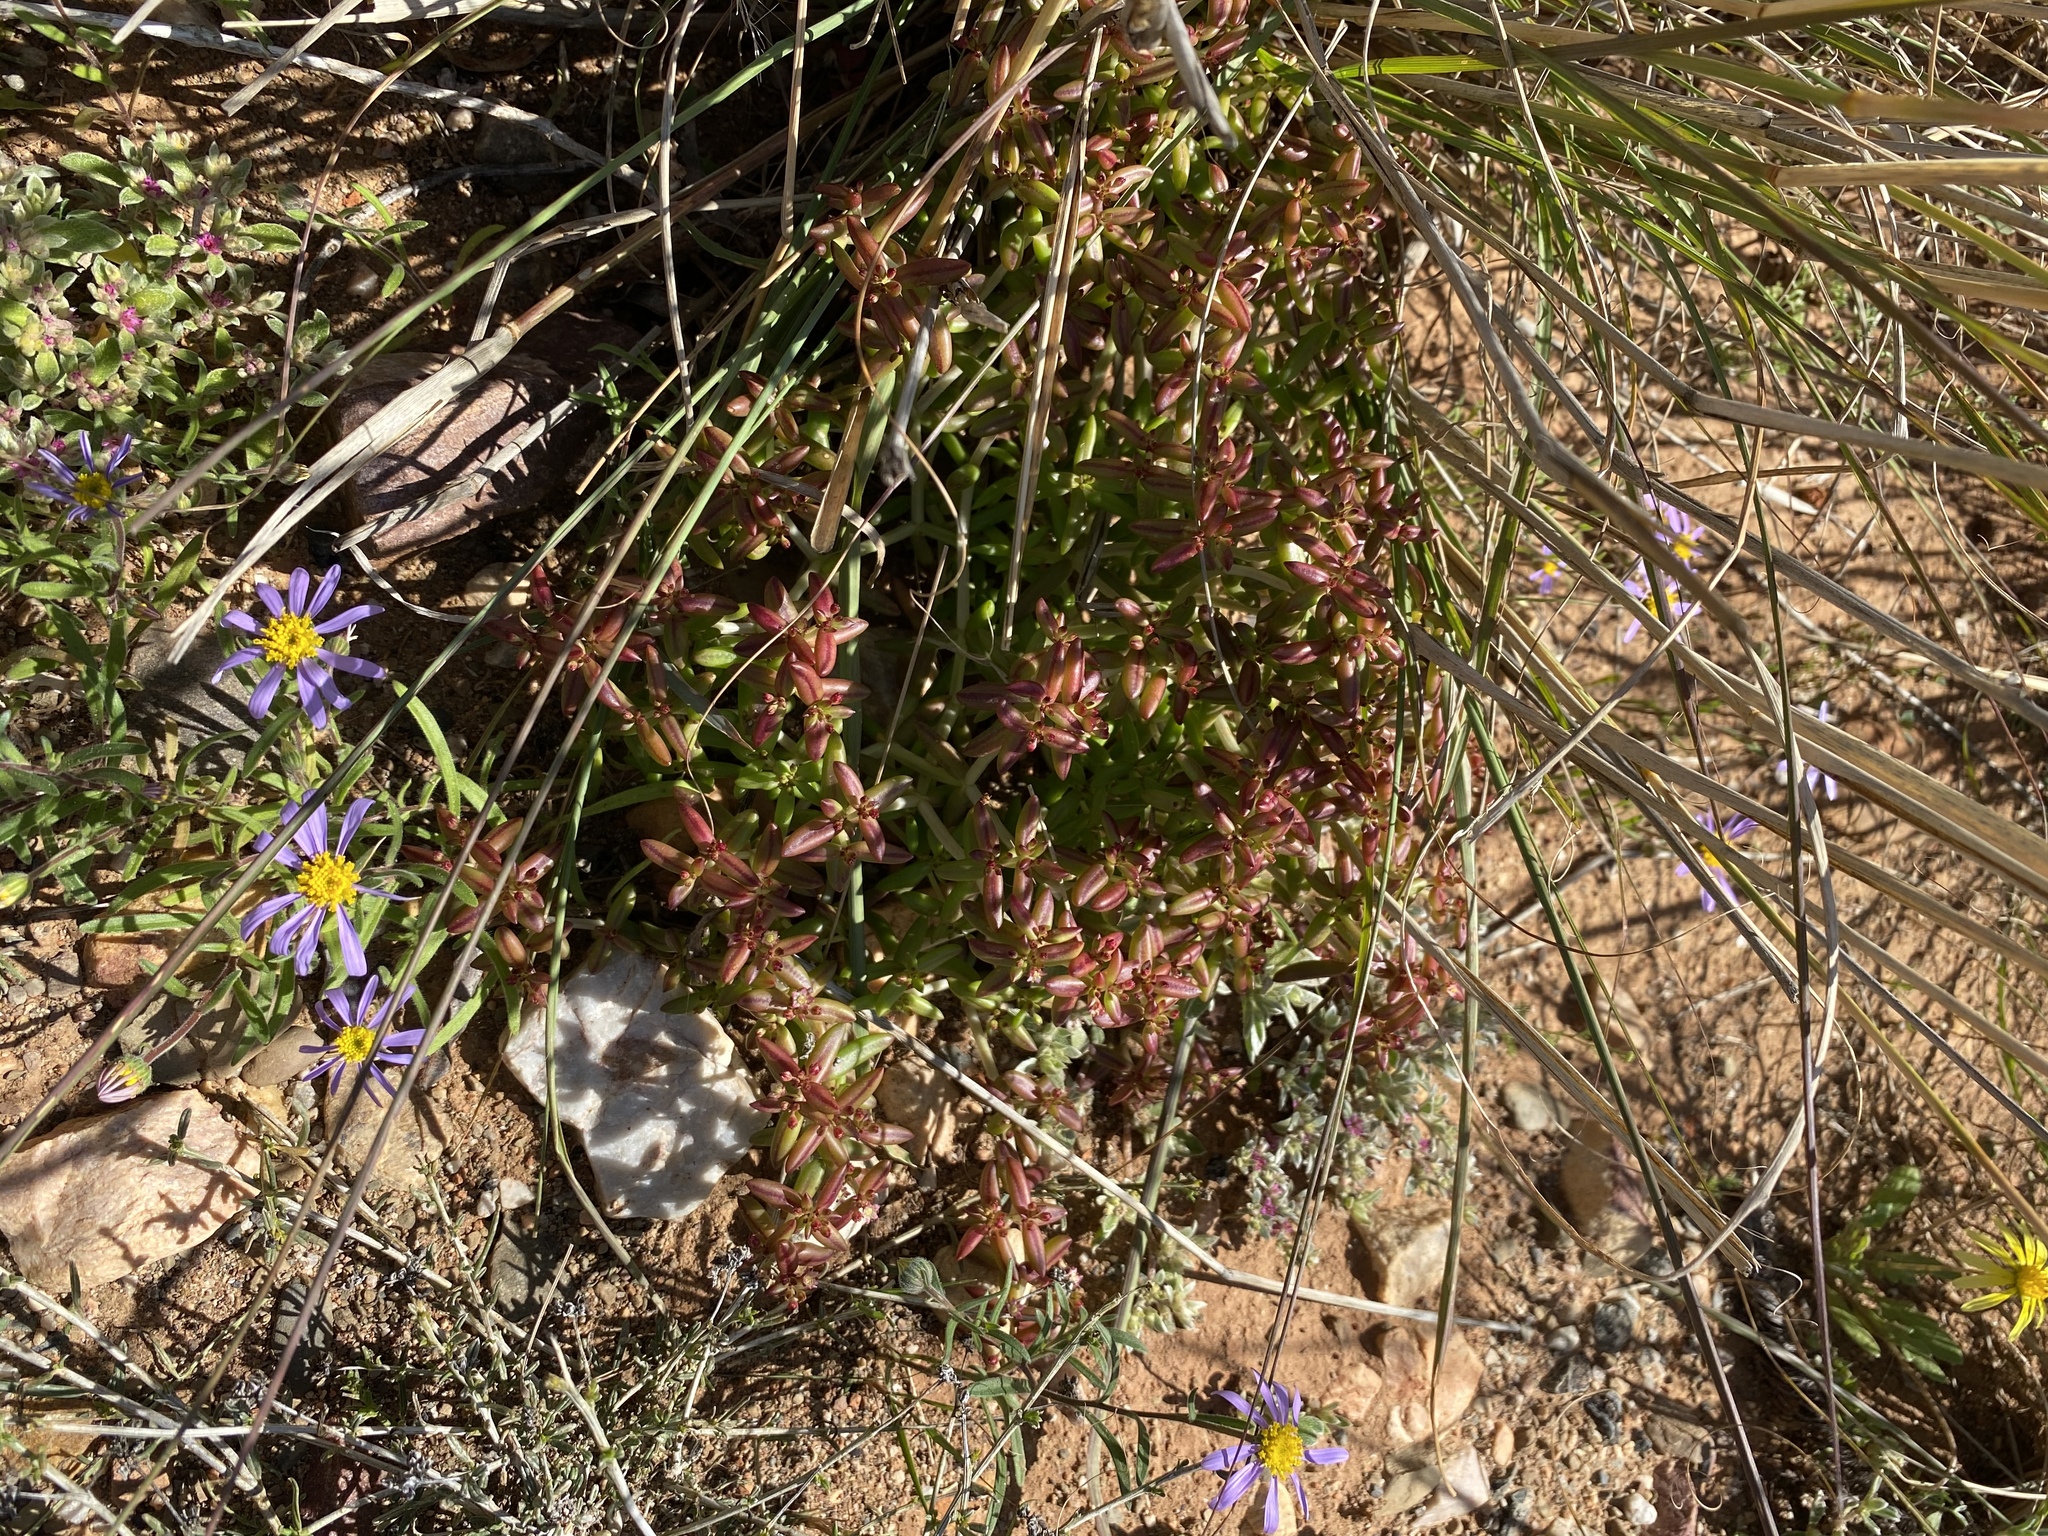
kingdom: Plantae
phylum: Tracheophyta
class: Magnoliopsida
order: Saxifragales
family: Crassulaceae
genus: Crassula
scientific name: Crassula expansa
